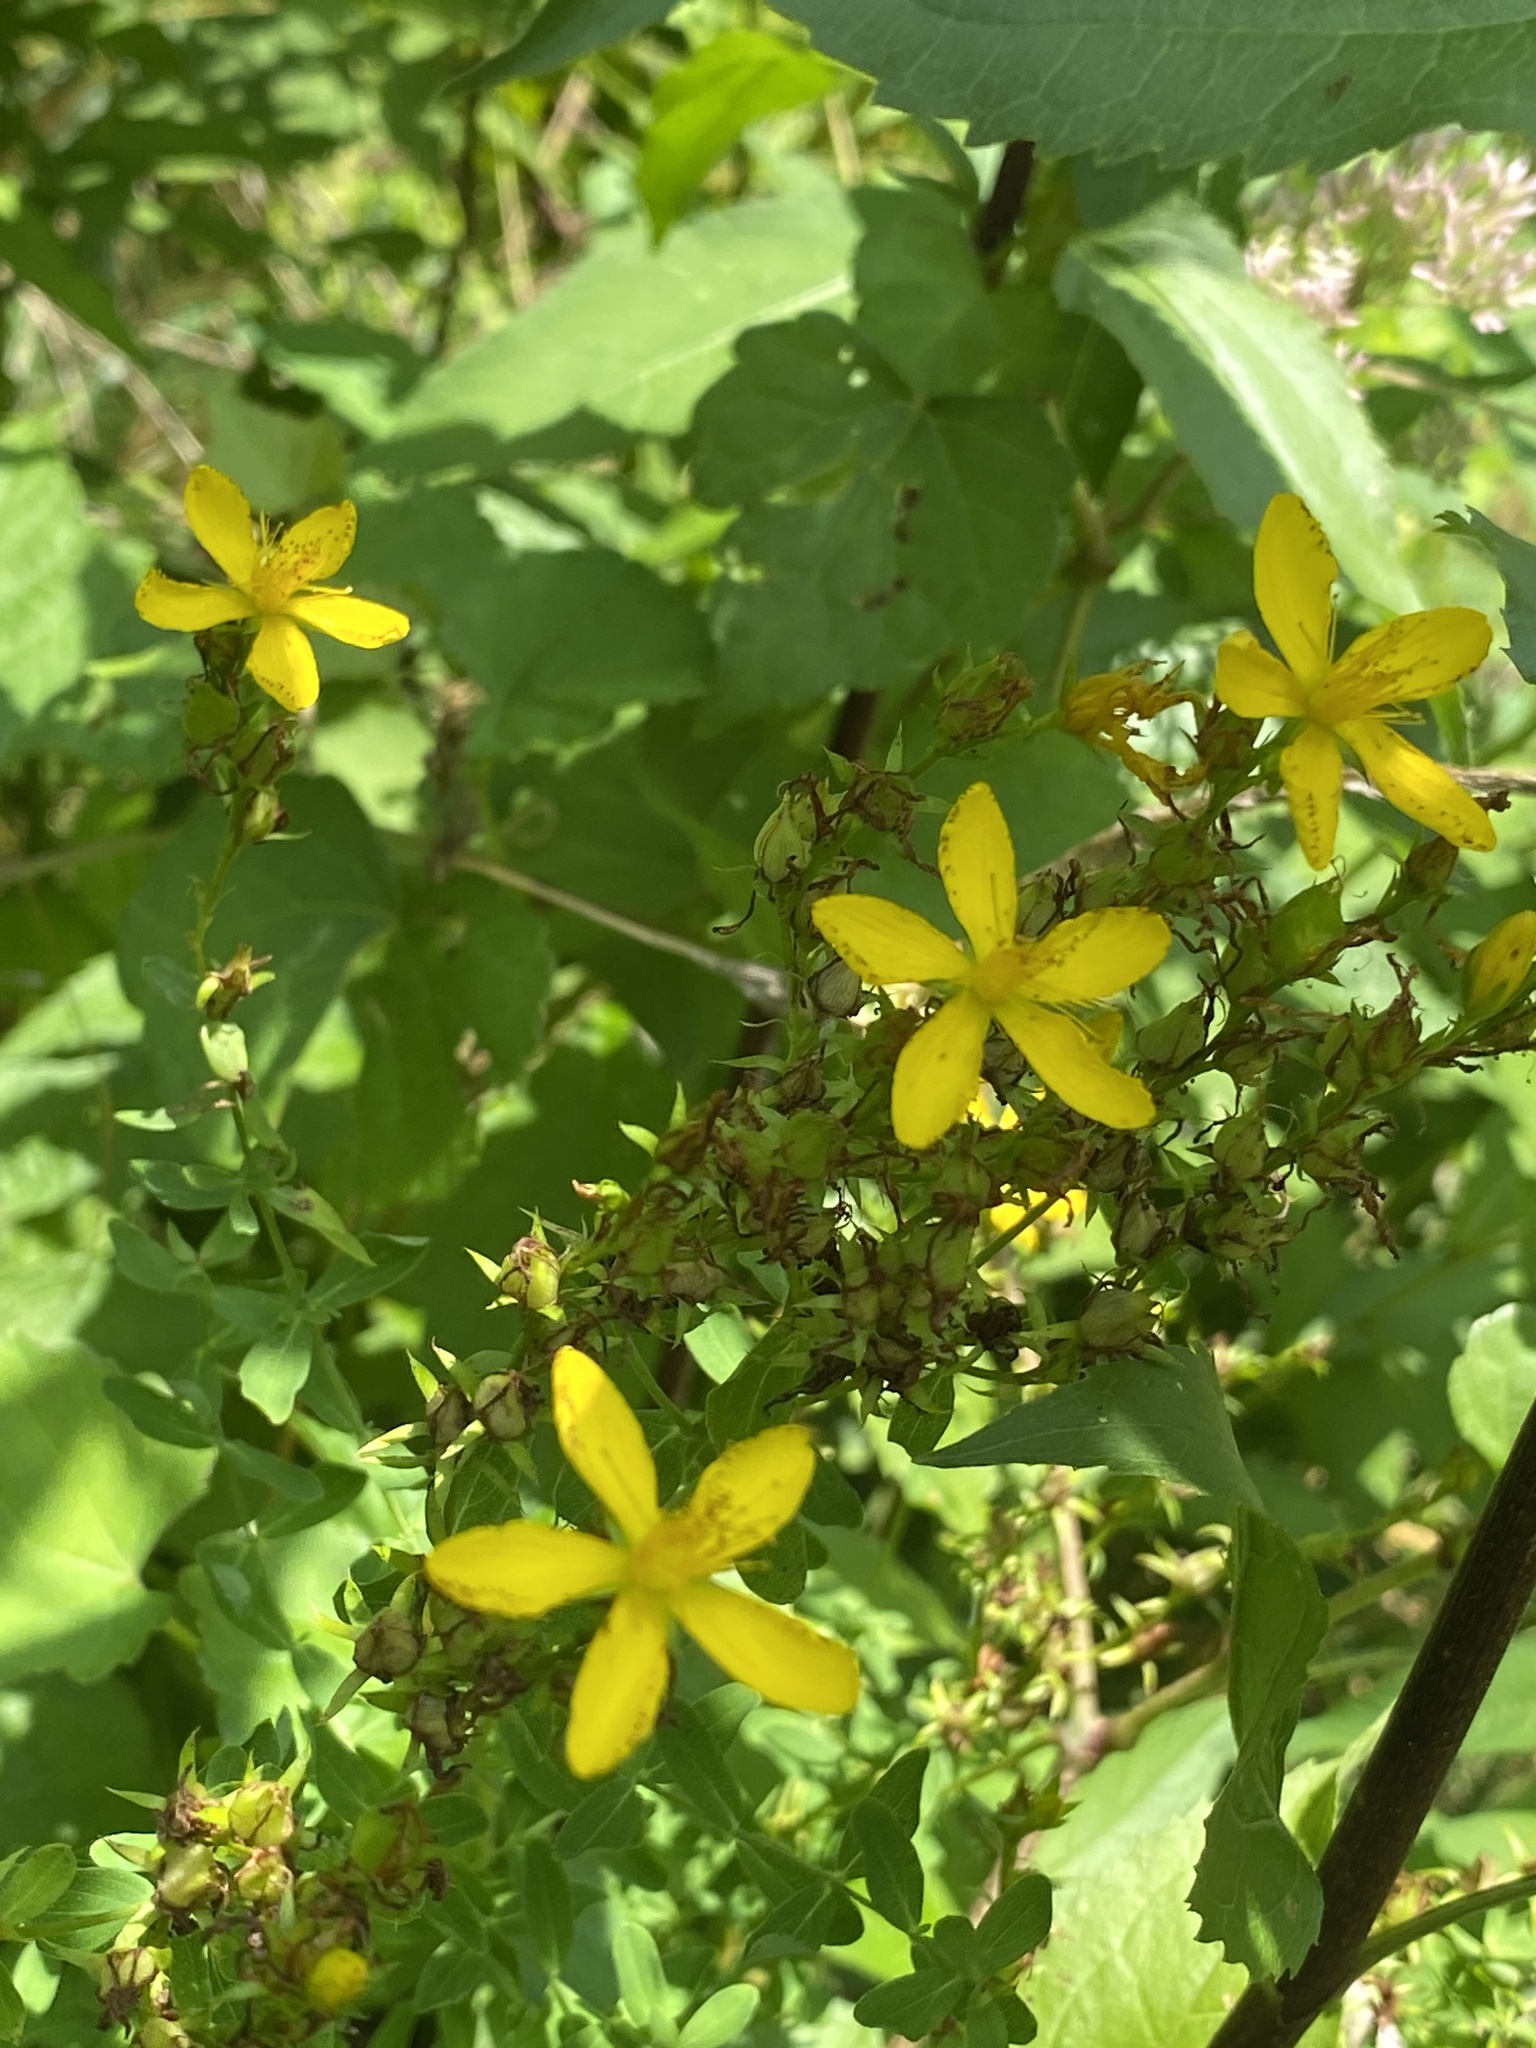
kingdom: Plantae
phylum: Tracheophyta
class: Magnoliopsida
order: Malpighiales
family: Hypericaceae
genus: Hypericum
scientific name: Hypericum perforatum
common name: Common st. johnswort
